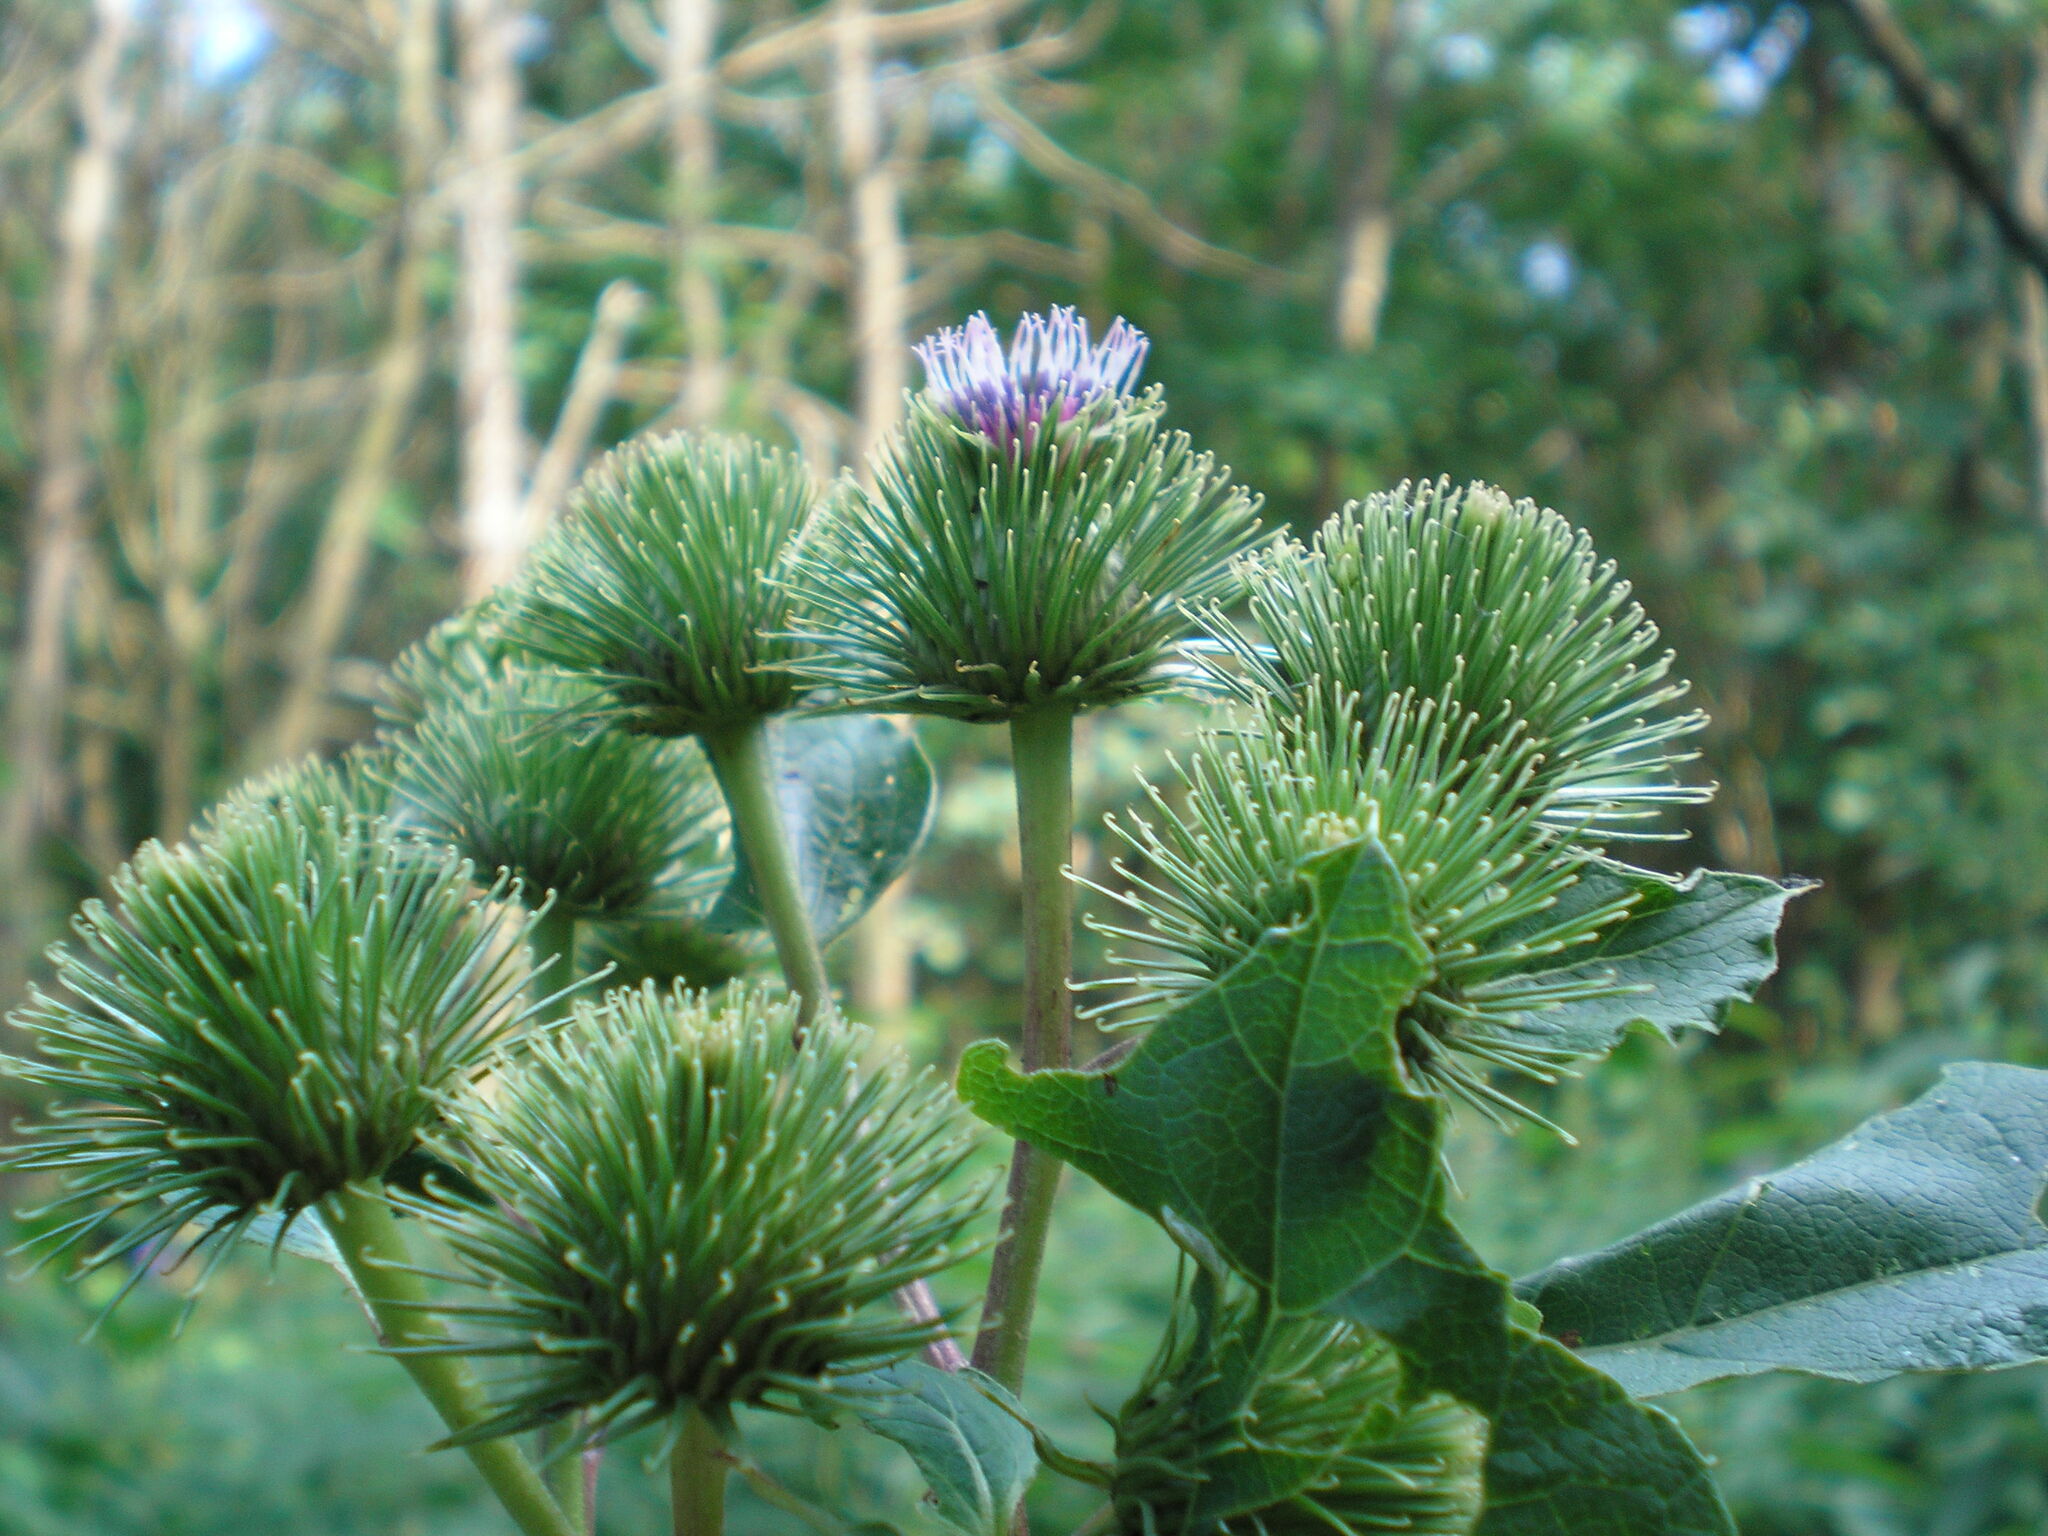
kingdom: Plantae
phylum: Tracheophyta
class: Magnoliopsida
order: Asterales
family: Asteraceae
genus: Arctium
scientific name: Arctium lappa
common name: Greater burdock
